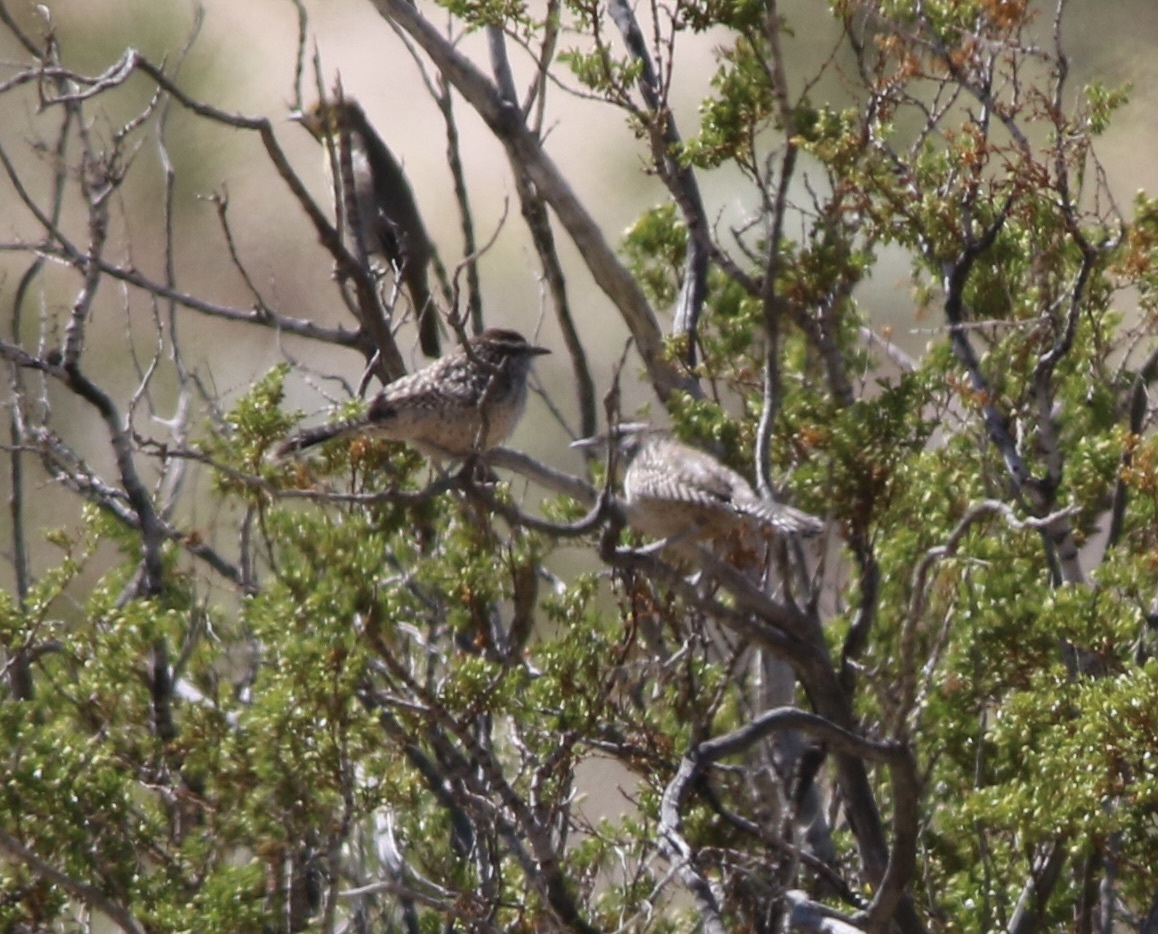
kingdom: Animalia
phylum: Chordata
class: Aves
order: Passeriformes
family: Troglodytidae
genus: Campylorhynchus
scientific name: Campylorhynchus brunneicapillus
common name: Cactus wren
